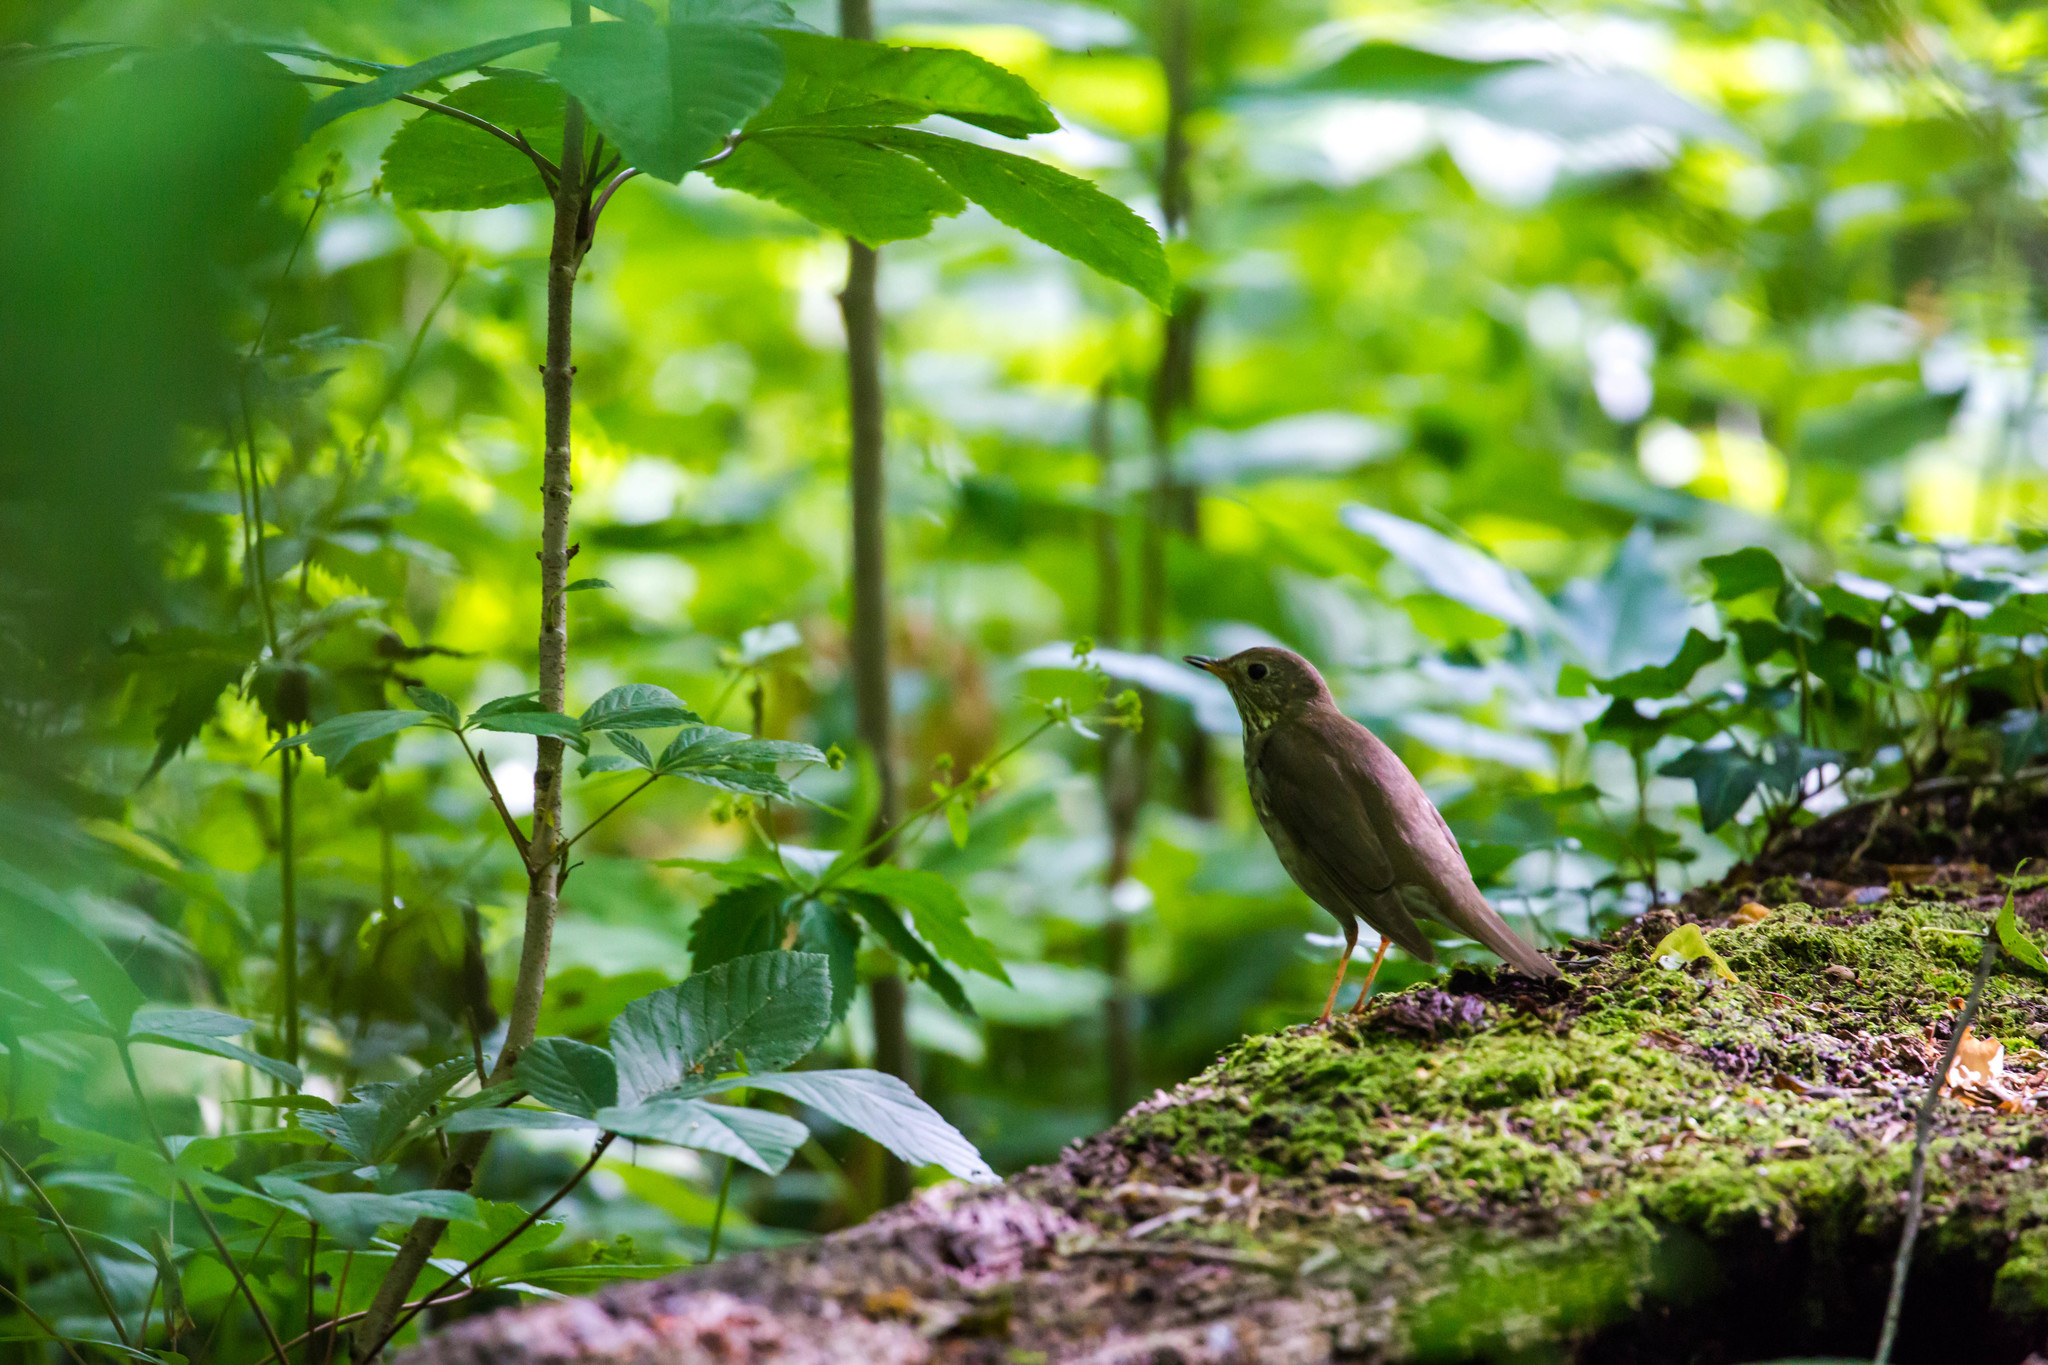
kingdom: Animalia
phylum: Chordata
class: Aves
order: Passeriformes
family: Turdidae
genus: Catharus
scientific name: Catharus minimus
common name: Grey-cheeked thrush
